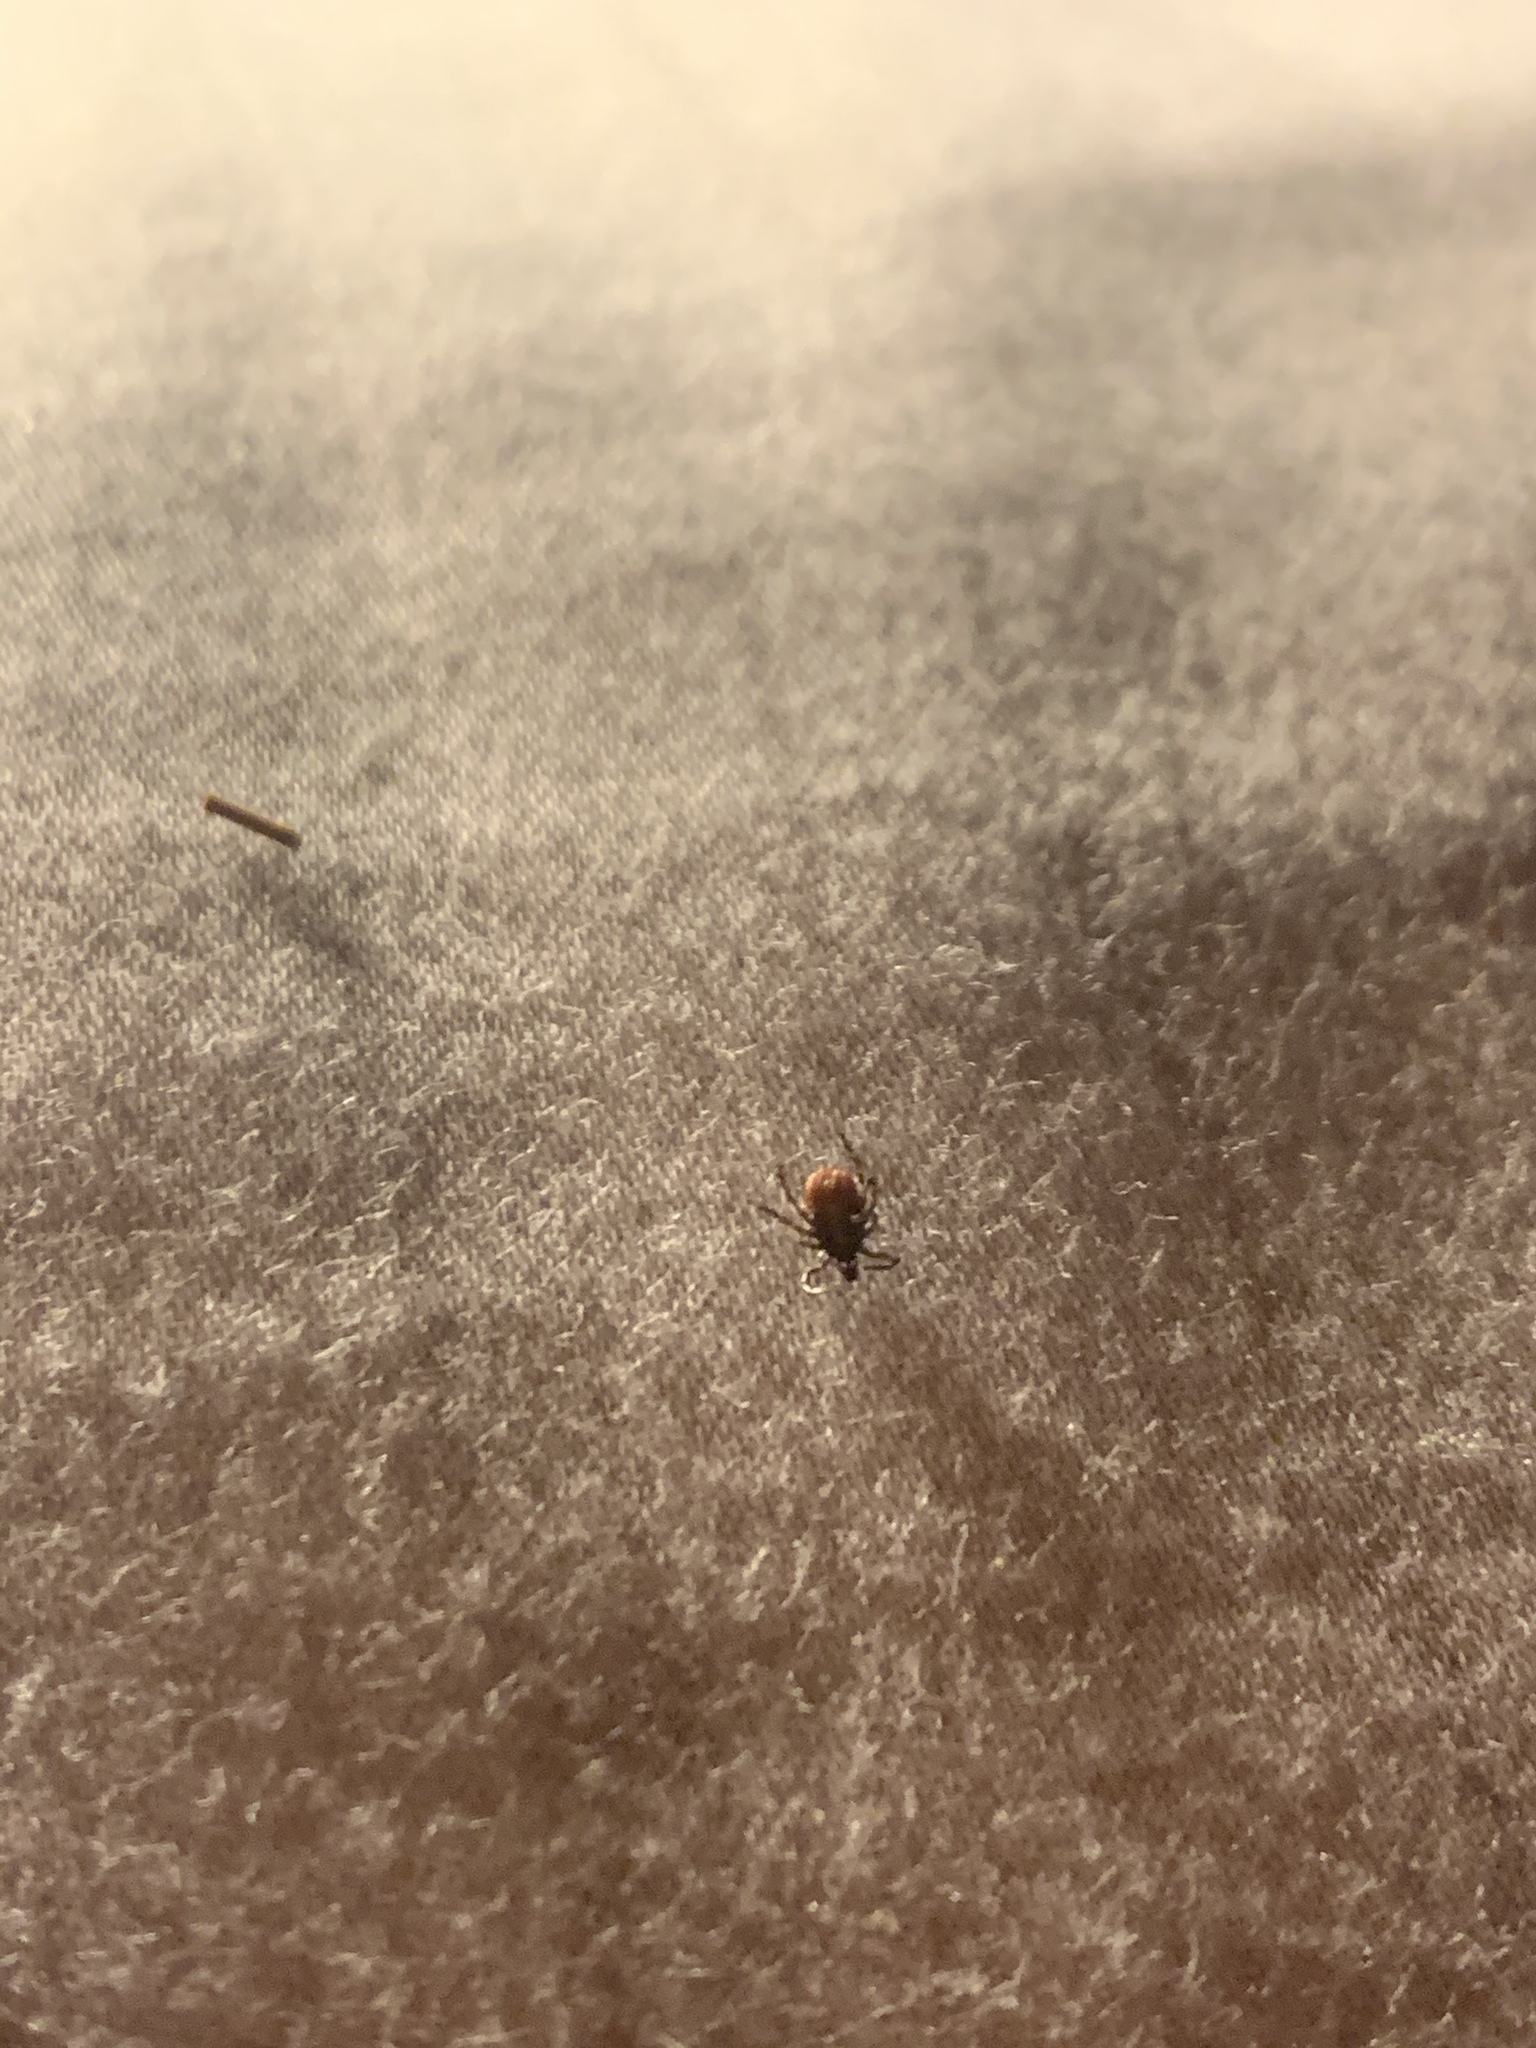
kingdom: Animalia
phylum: Arthropoda
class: Arachnida
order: Ixodida
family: Ixodidae
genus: Ixodes
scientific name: Ixodes scapularis
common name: Black legged tick
